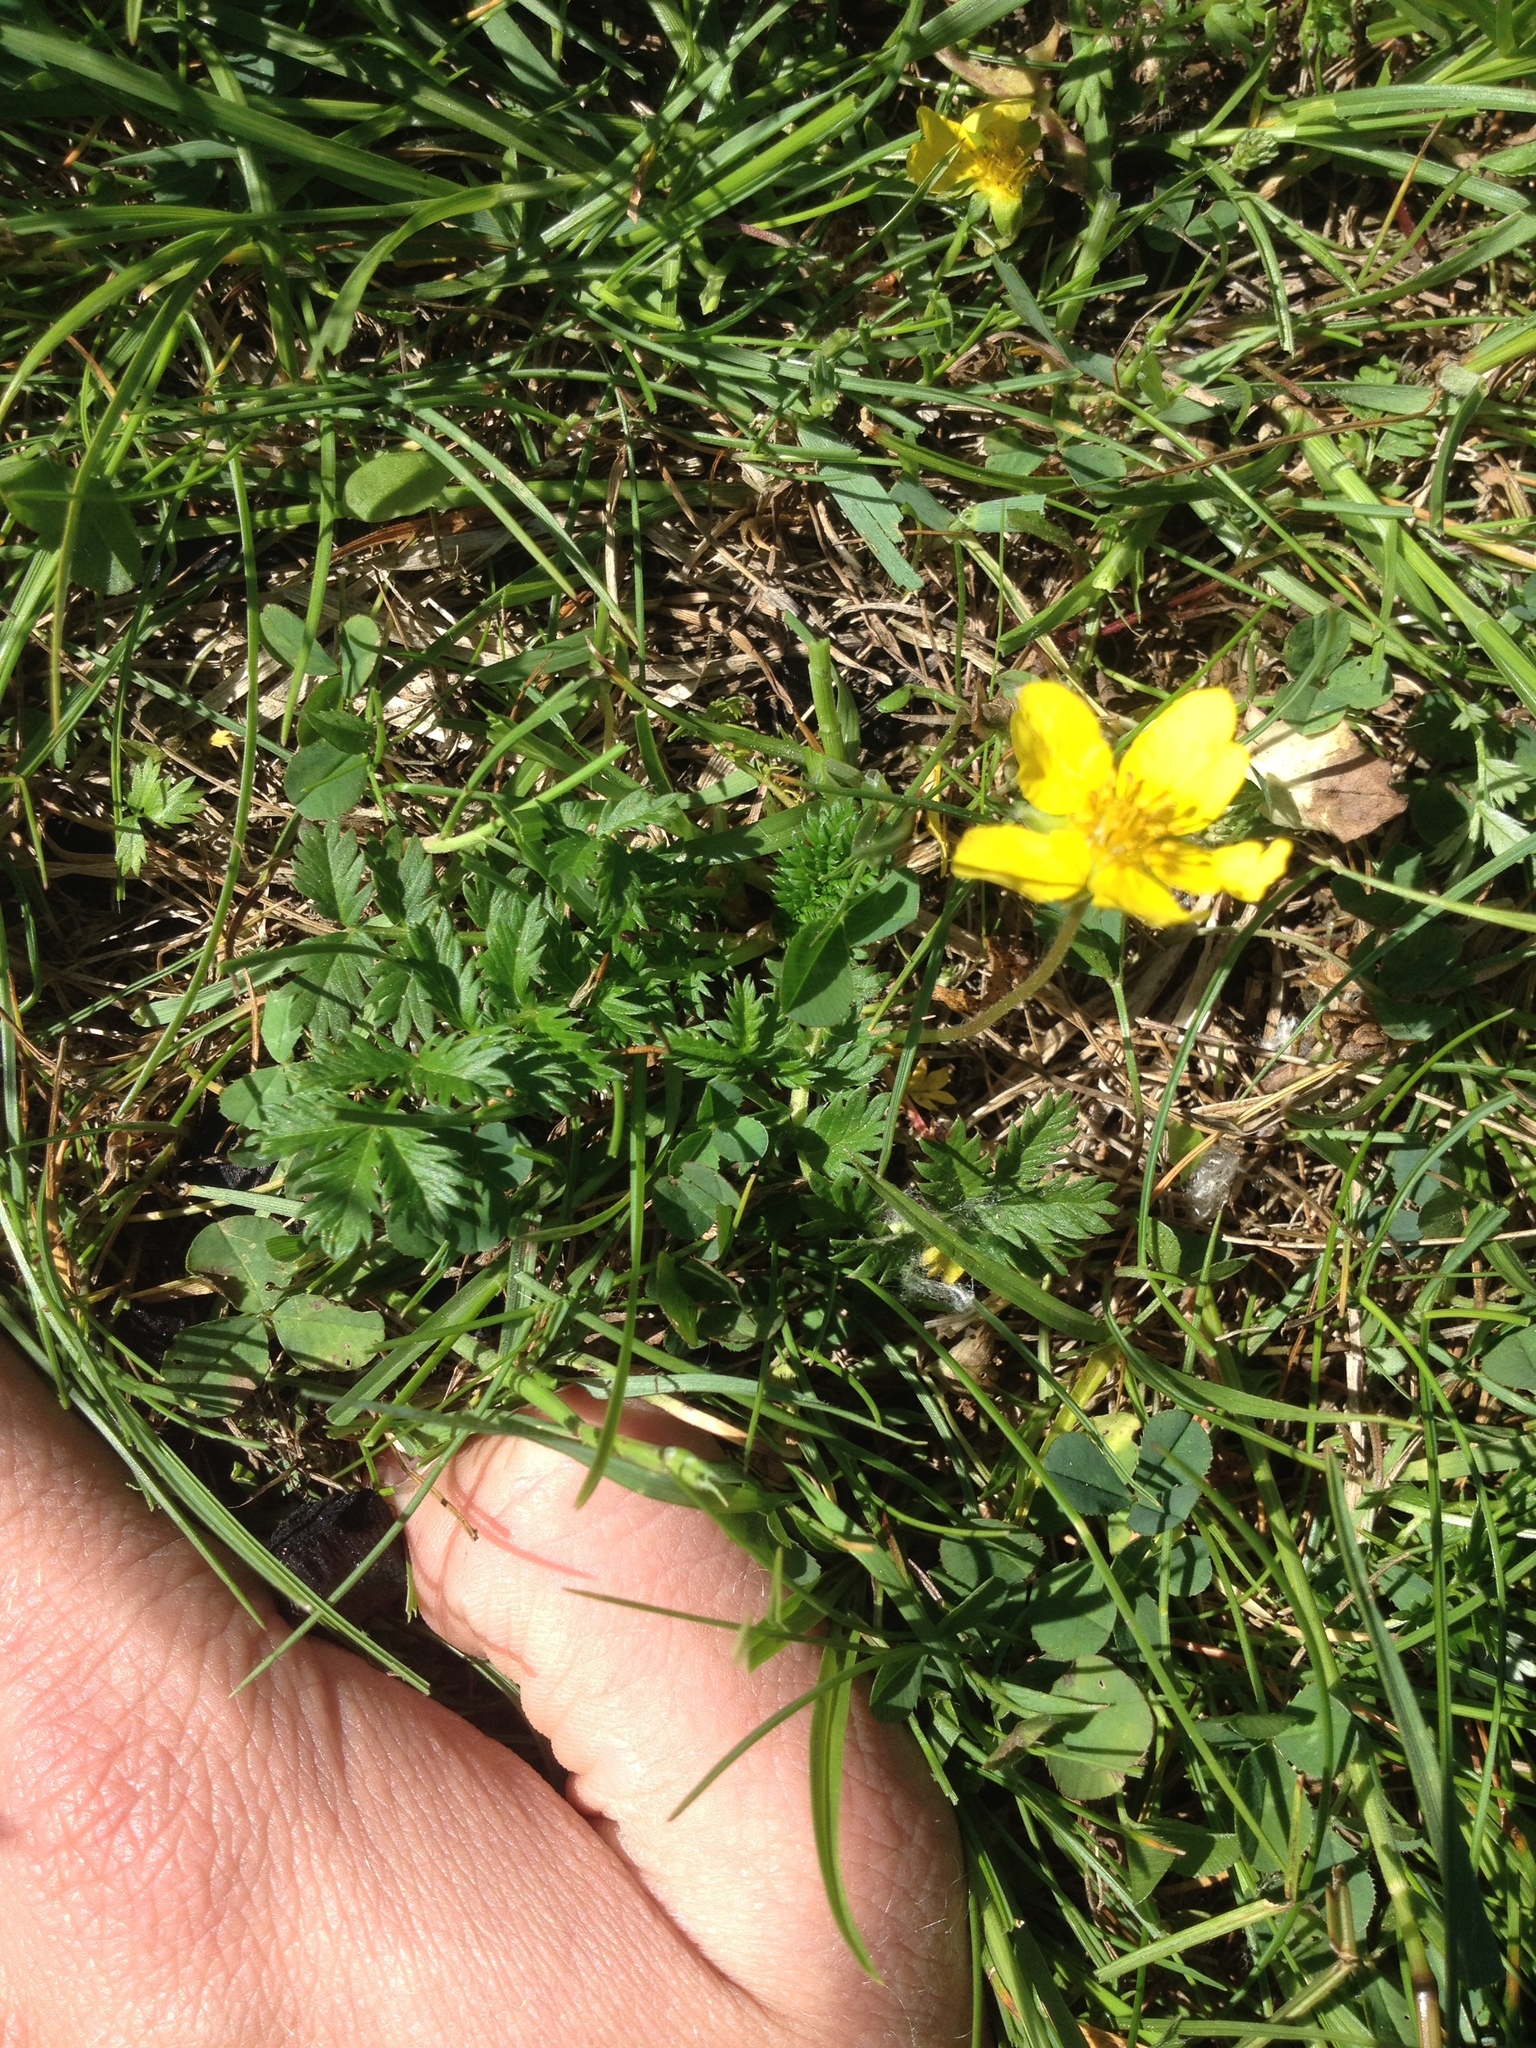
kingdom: Plantae
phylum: Tracheophyta
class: Magnoliopsida
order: Rosales
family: Rosaceae
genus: Argentina
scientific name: Argentina anserina
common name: Common silverweed
